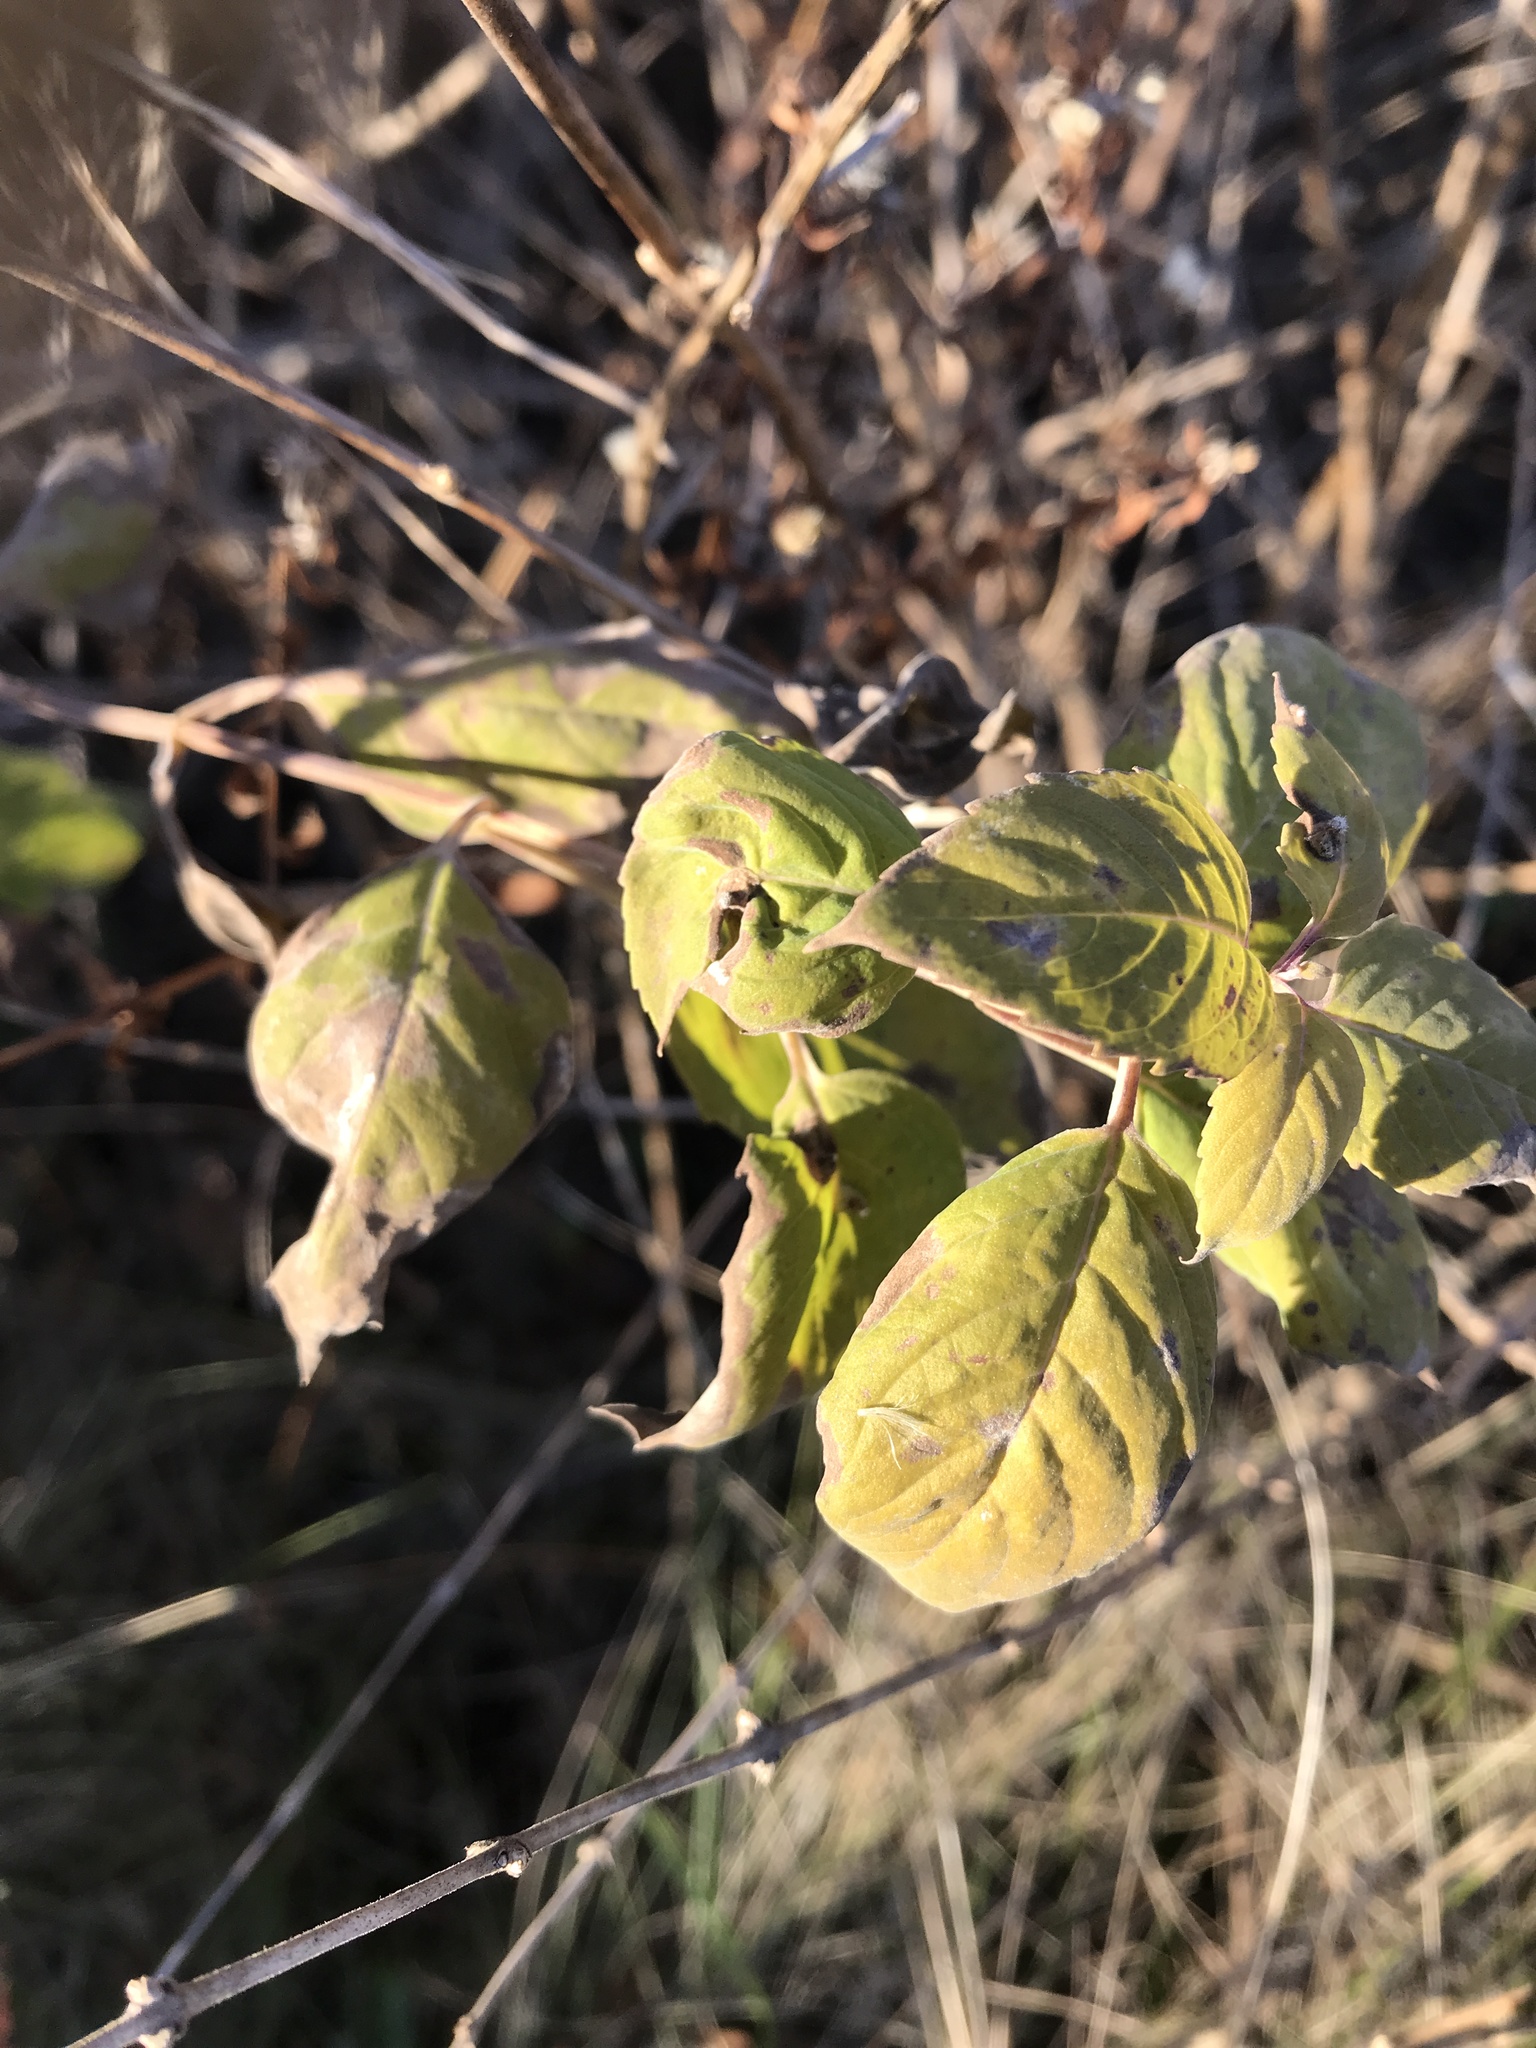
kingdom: Plantae
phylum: Tracheophyta
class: Magnoliopsida
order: Lamiales
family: Lamiaceae
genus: Monarda
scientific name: Monarda fistulosa
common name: Purple beebalm
